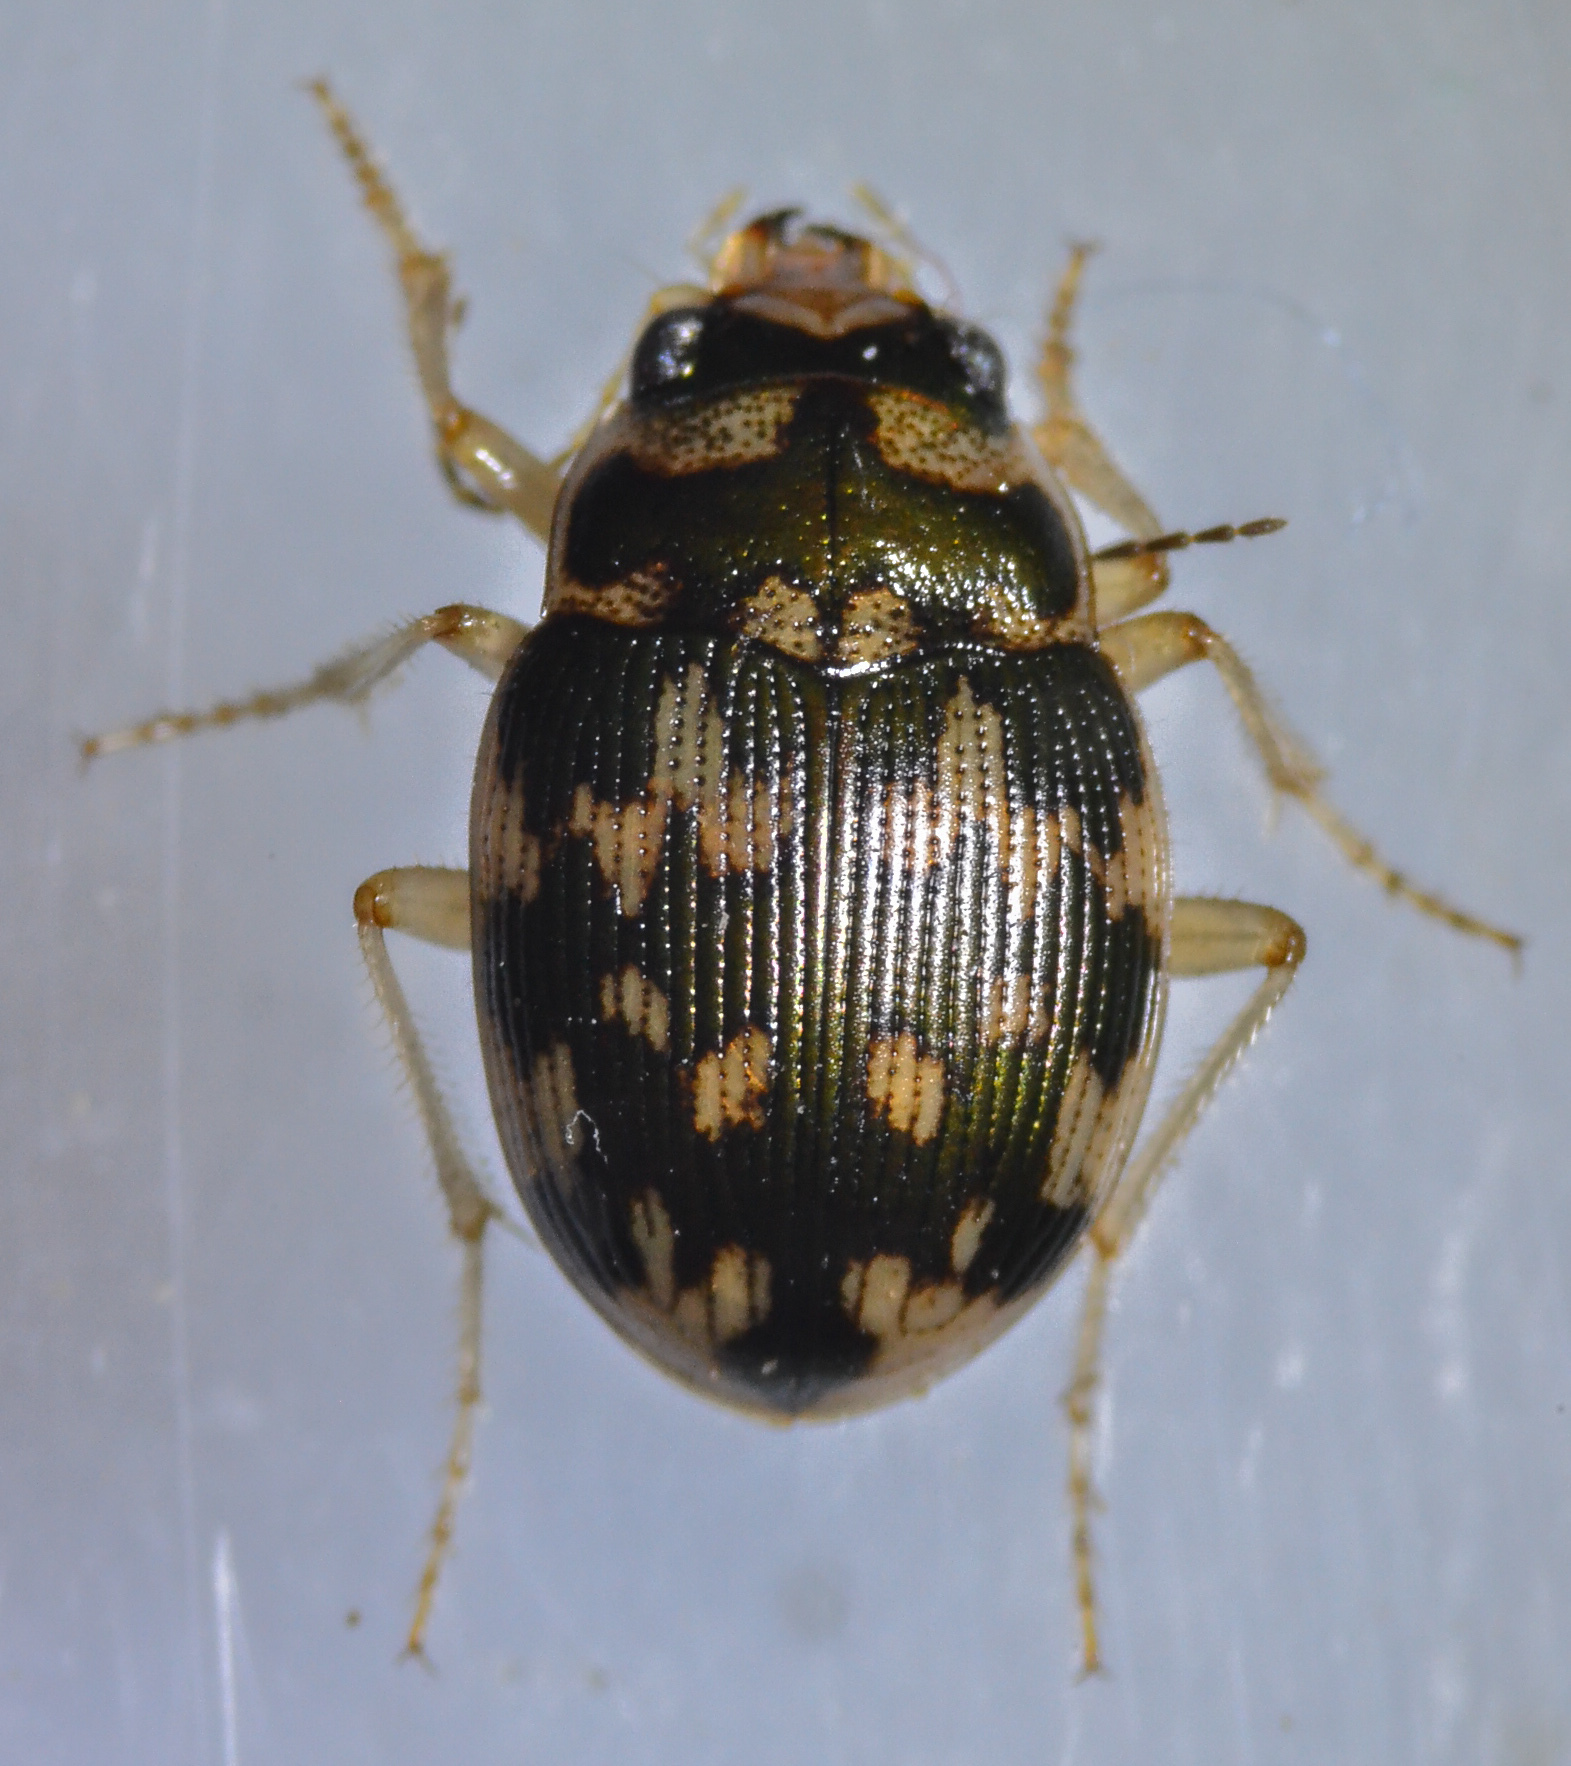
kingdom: Animalia
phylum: Arthropoda
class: Insecta
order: Coleoptera
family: Carabidae
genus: Omophron
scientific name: Omophron solidum
